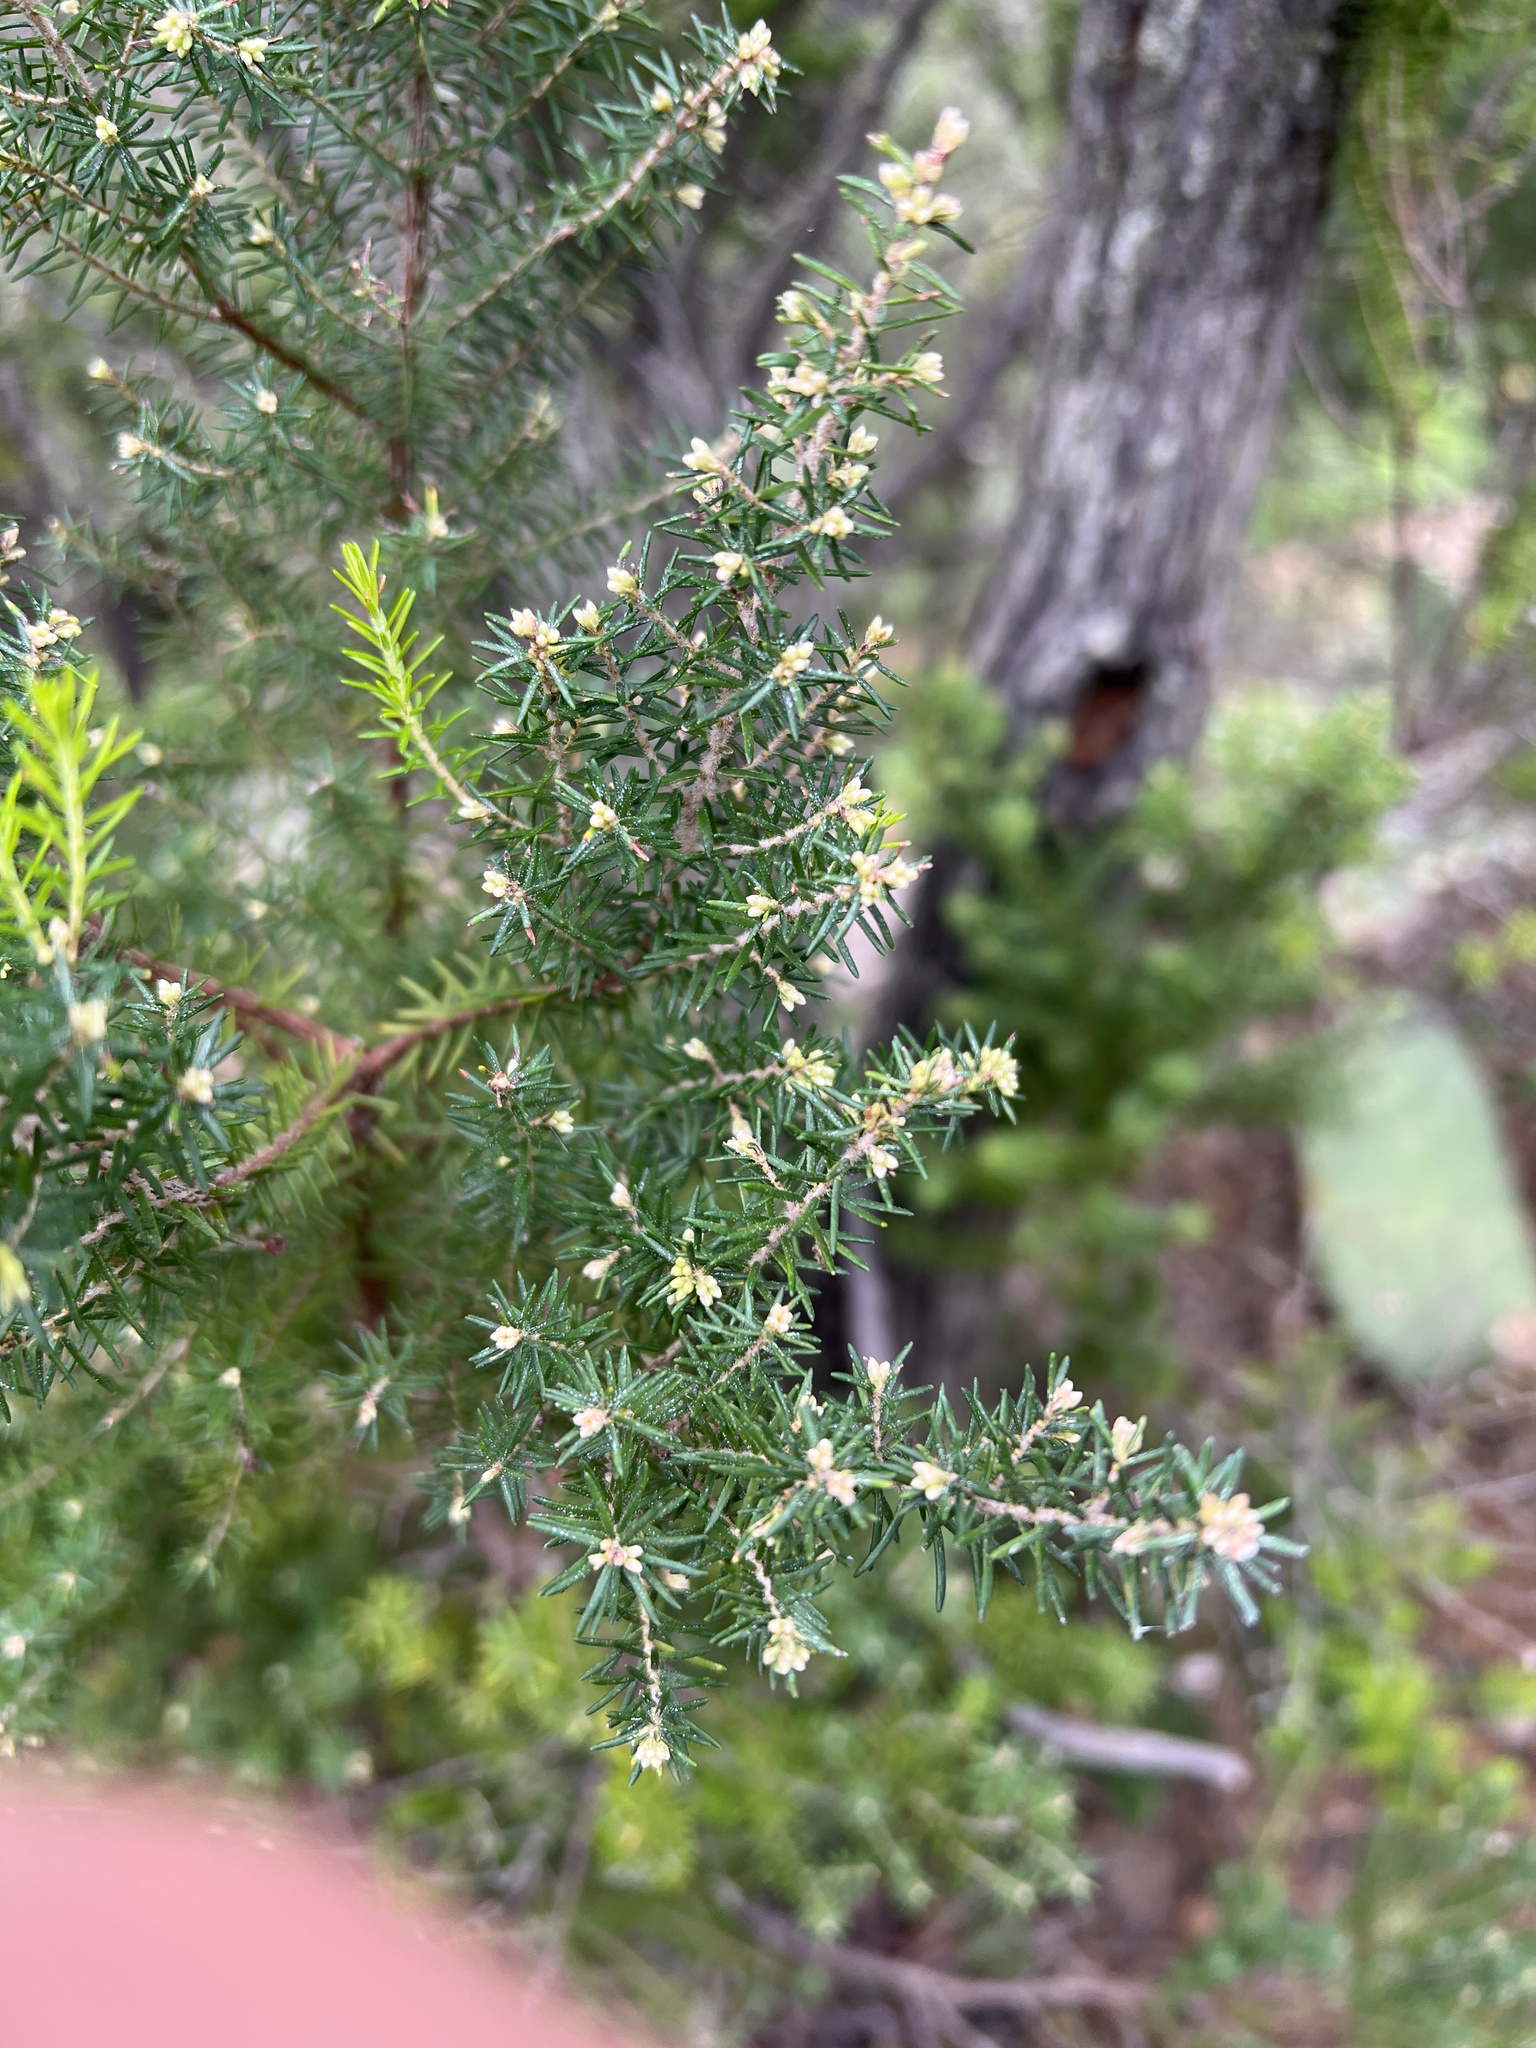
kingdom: Plantae
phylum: Tracheophyta
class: Magnoliopsida
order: Ericales
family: Ericaceae
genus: Erica
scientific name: Erica canariensis
